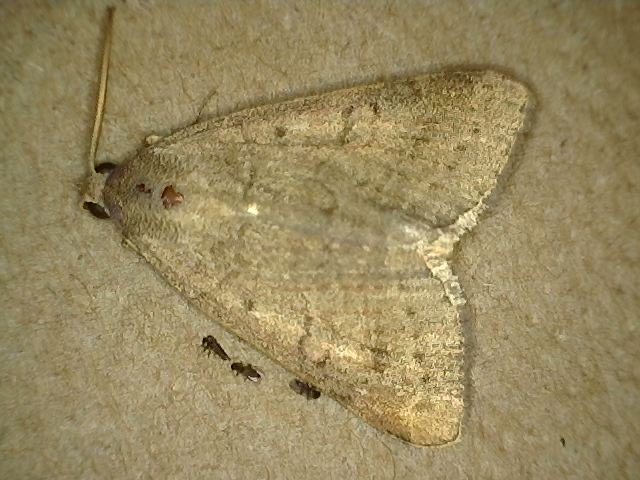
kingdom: Animalia
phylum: Arthropoda
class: Insecta
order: Lepidoptera
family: Erebidae
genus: Caenurgia
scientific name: Caenurgia chloropha
